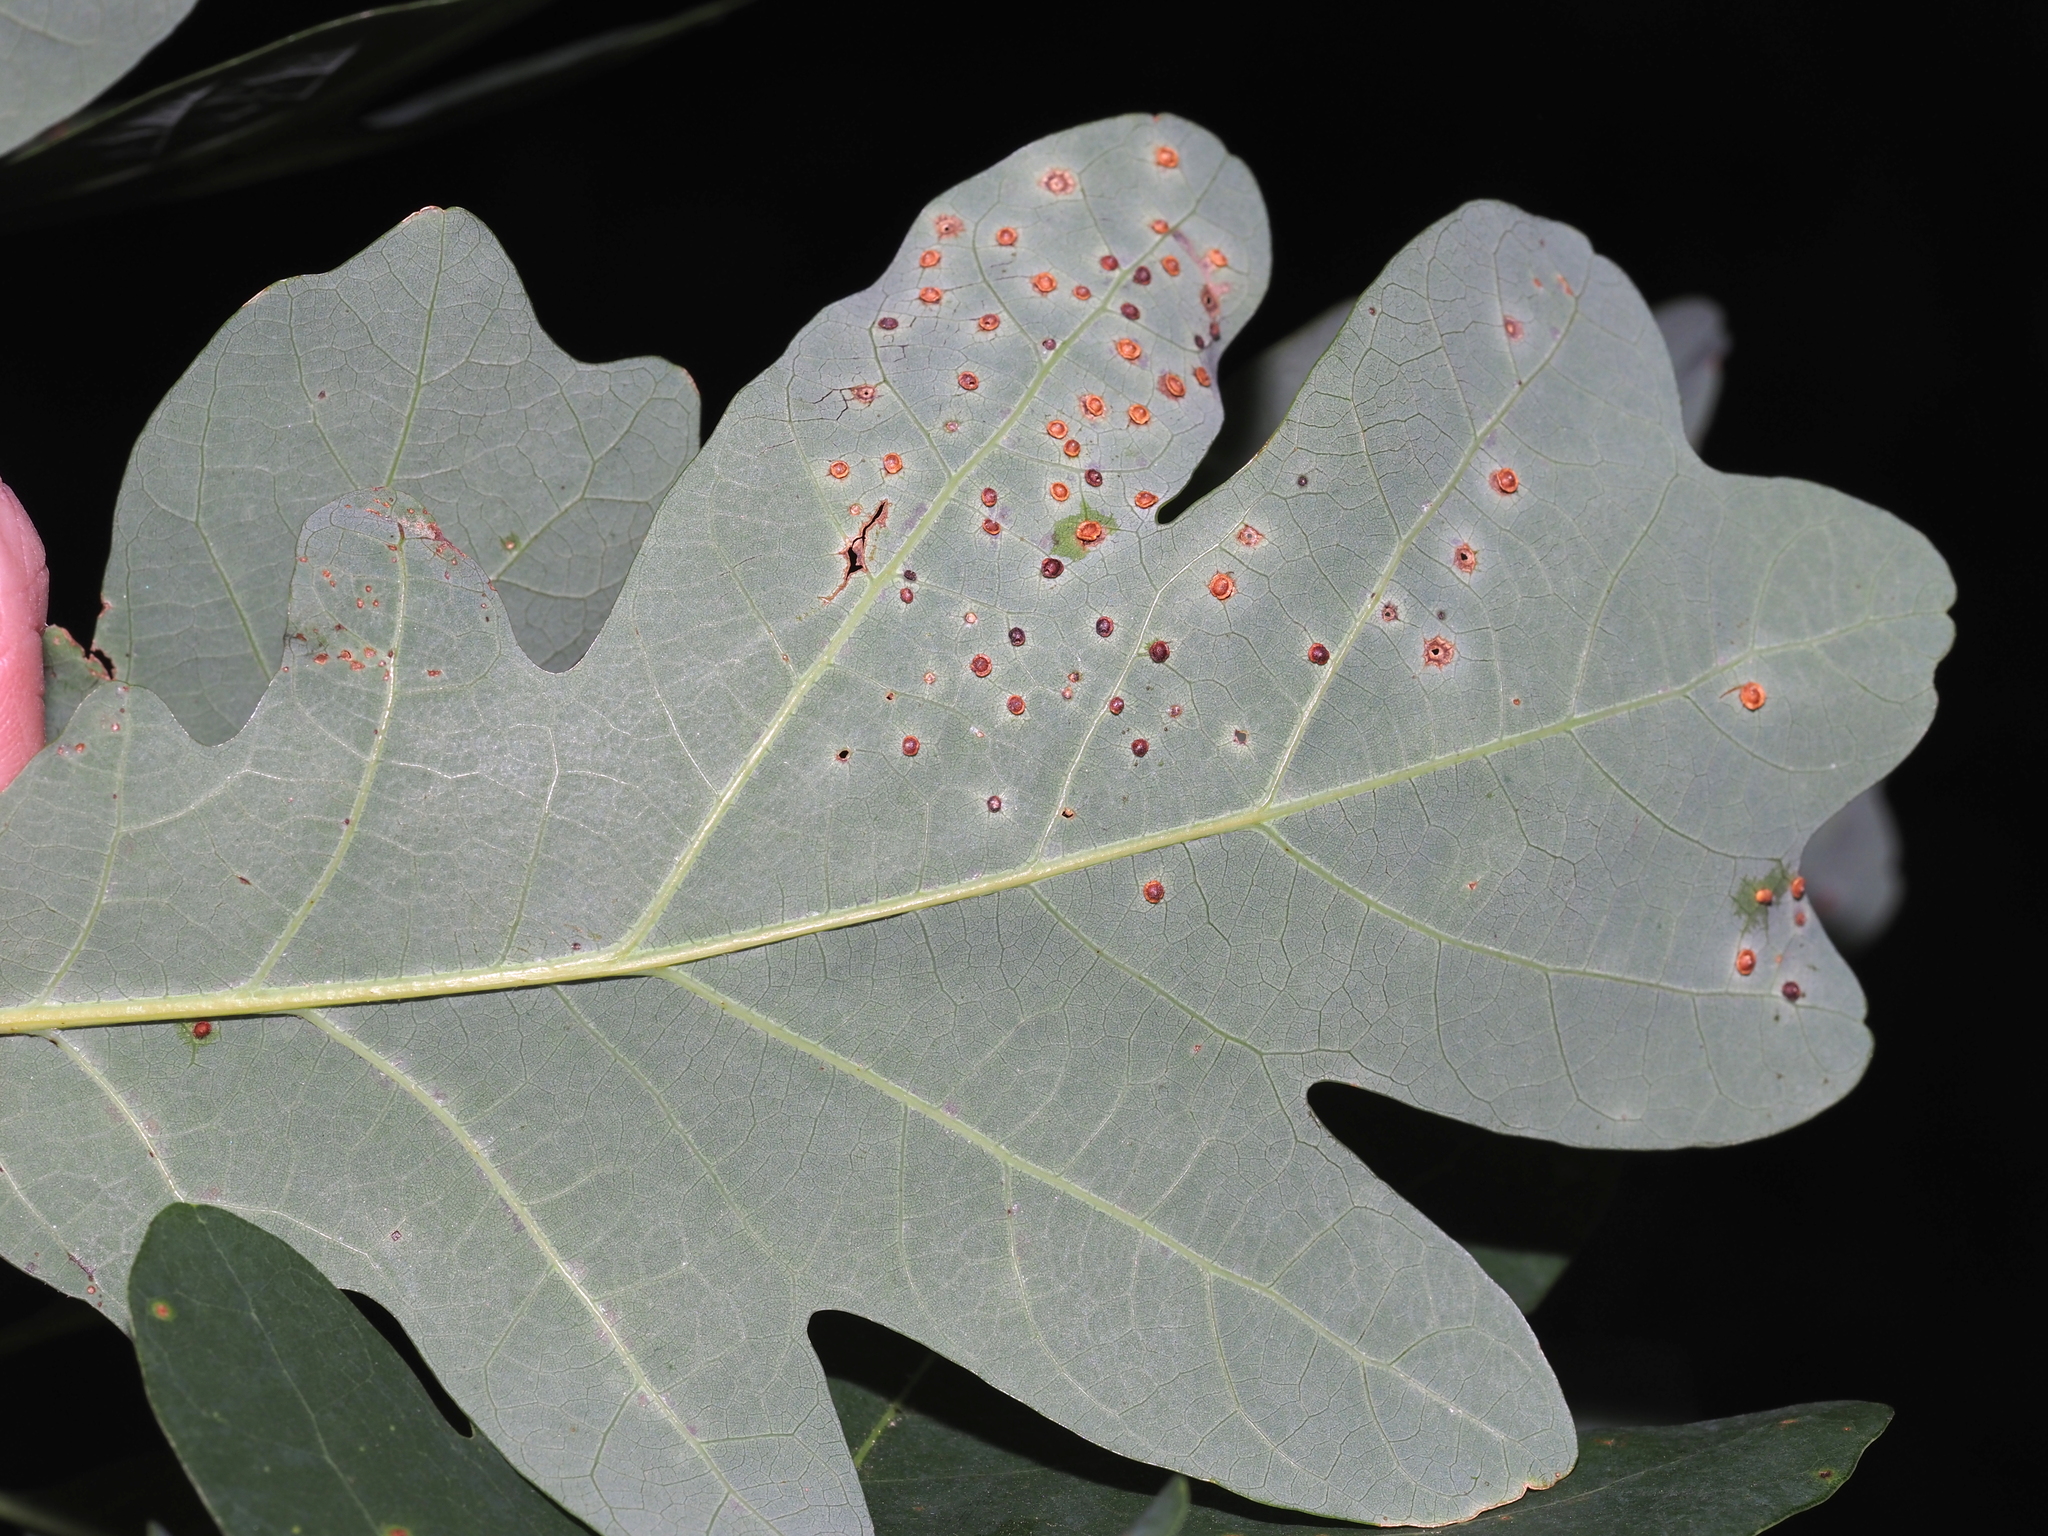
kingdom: Animalia
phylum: Arthropoda
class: Insecta
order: Hymenoptera
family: Cynipidae
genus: Neuroterus
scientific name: Neuroterus
